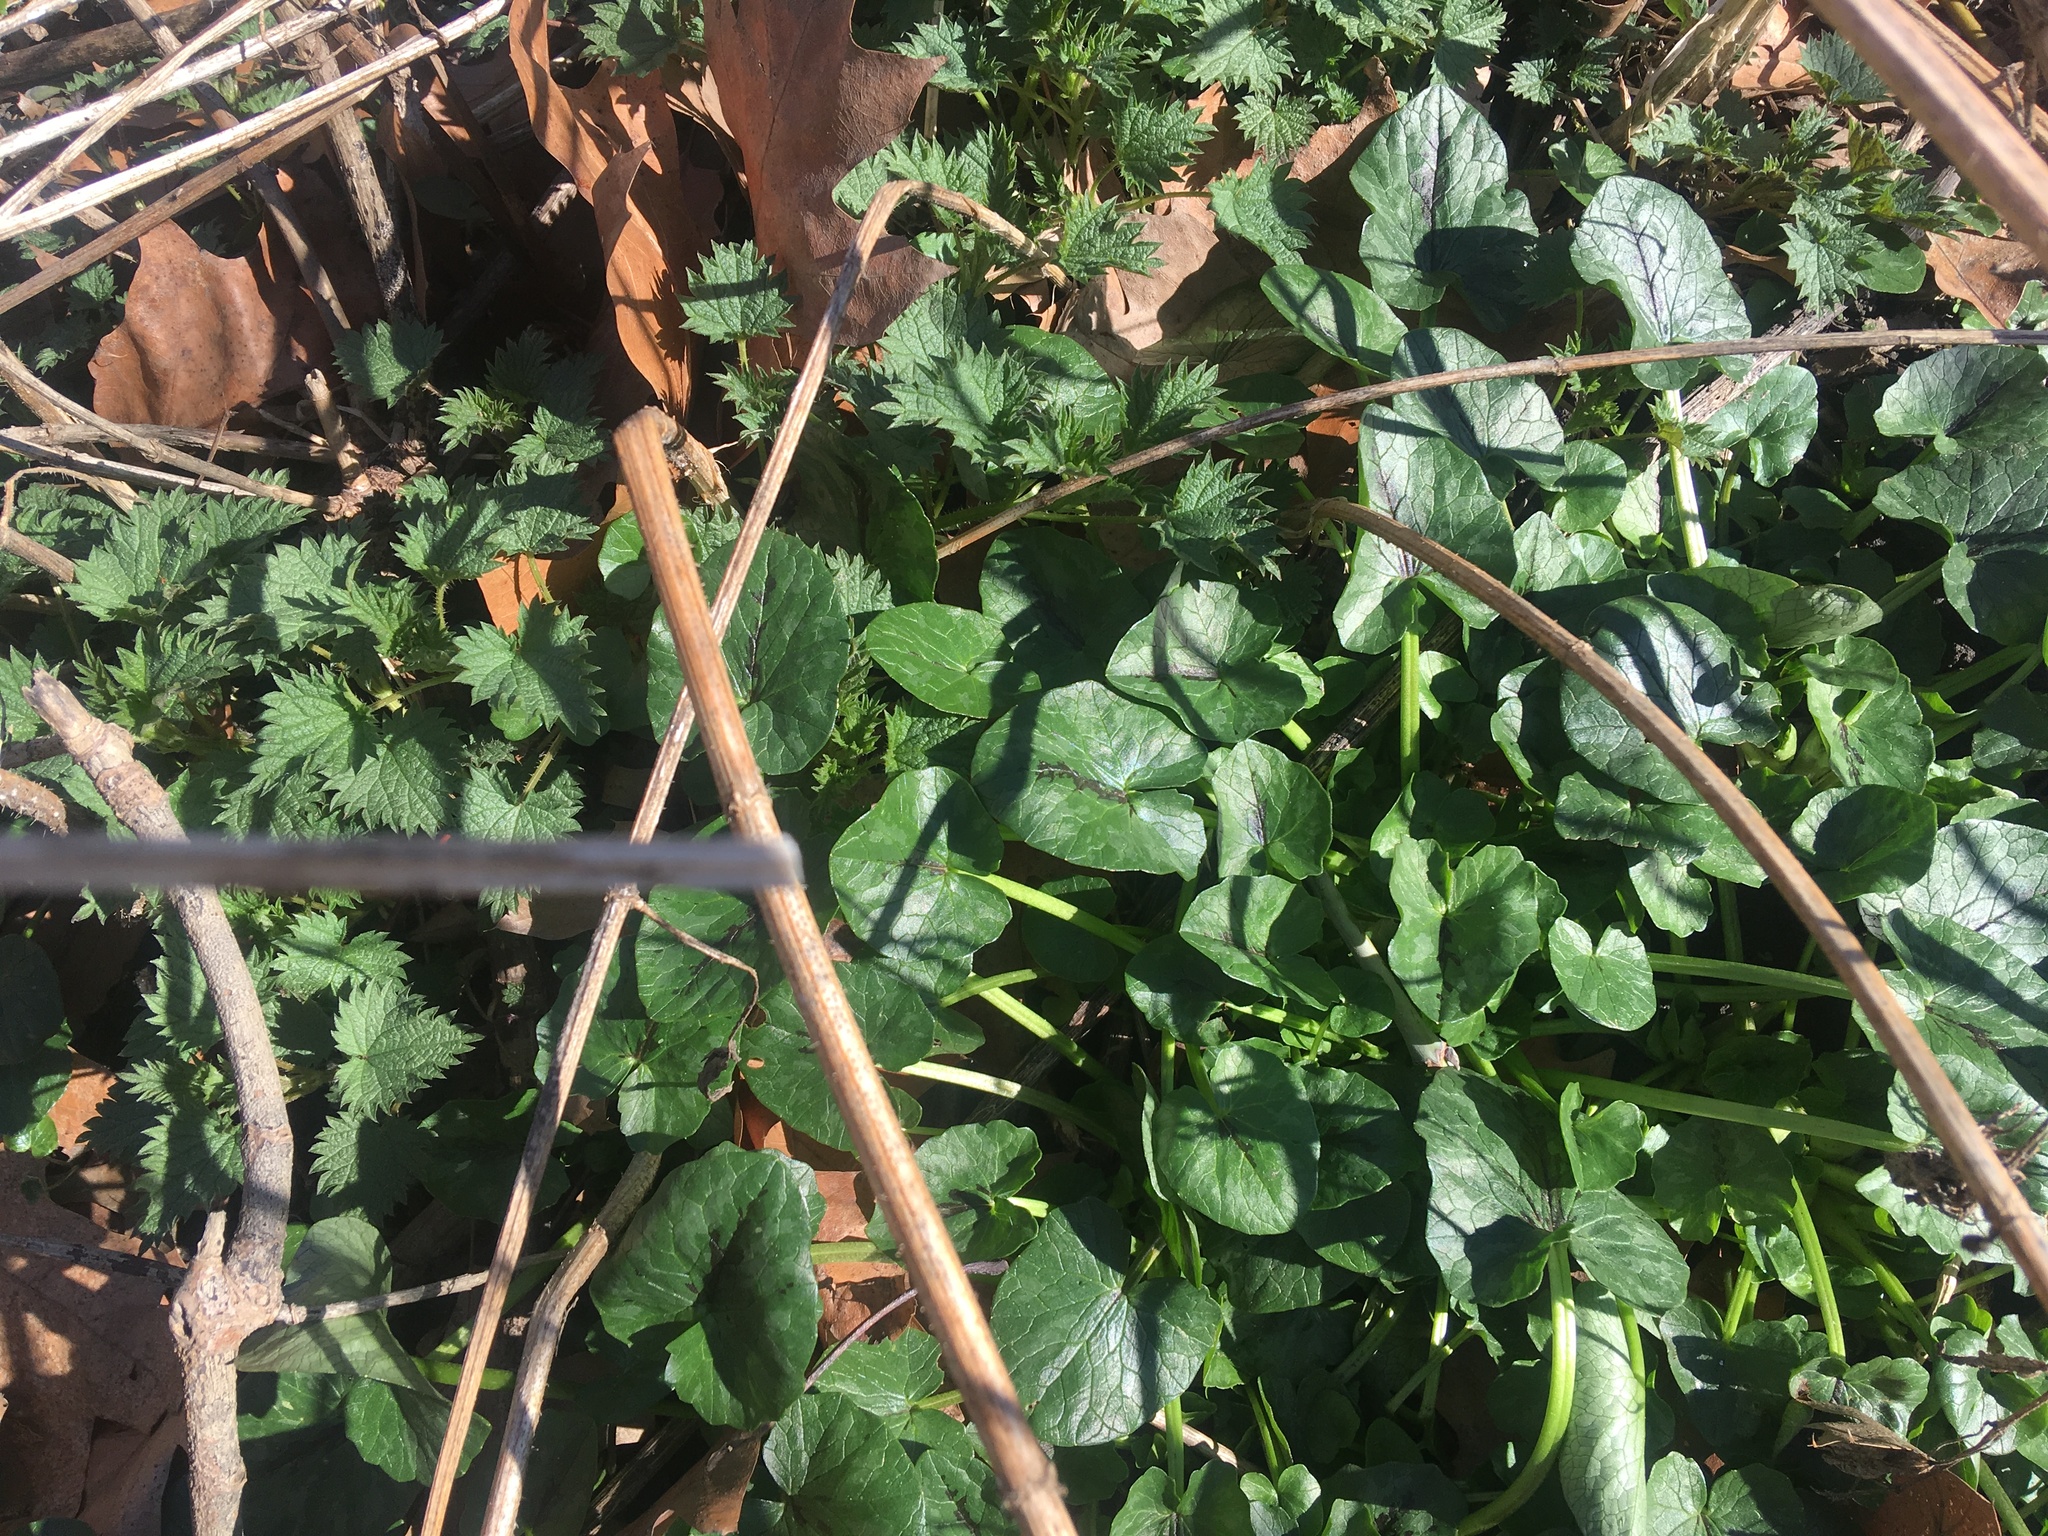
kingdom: Plantae
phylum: Tracheophyta
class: Magnoliopsida
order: Ranunculales
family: Ranunculaceae
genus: Ficaria
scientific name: Ficaria verna
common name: Lesser celandine
